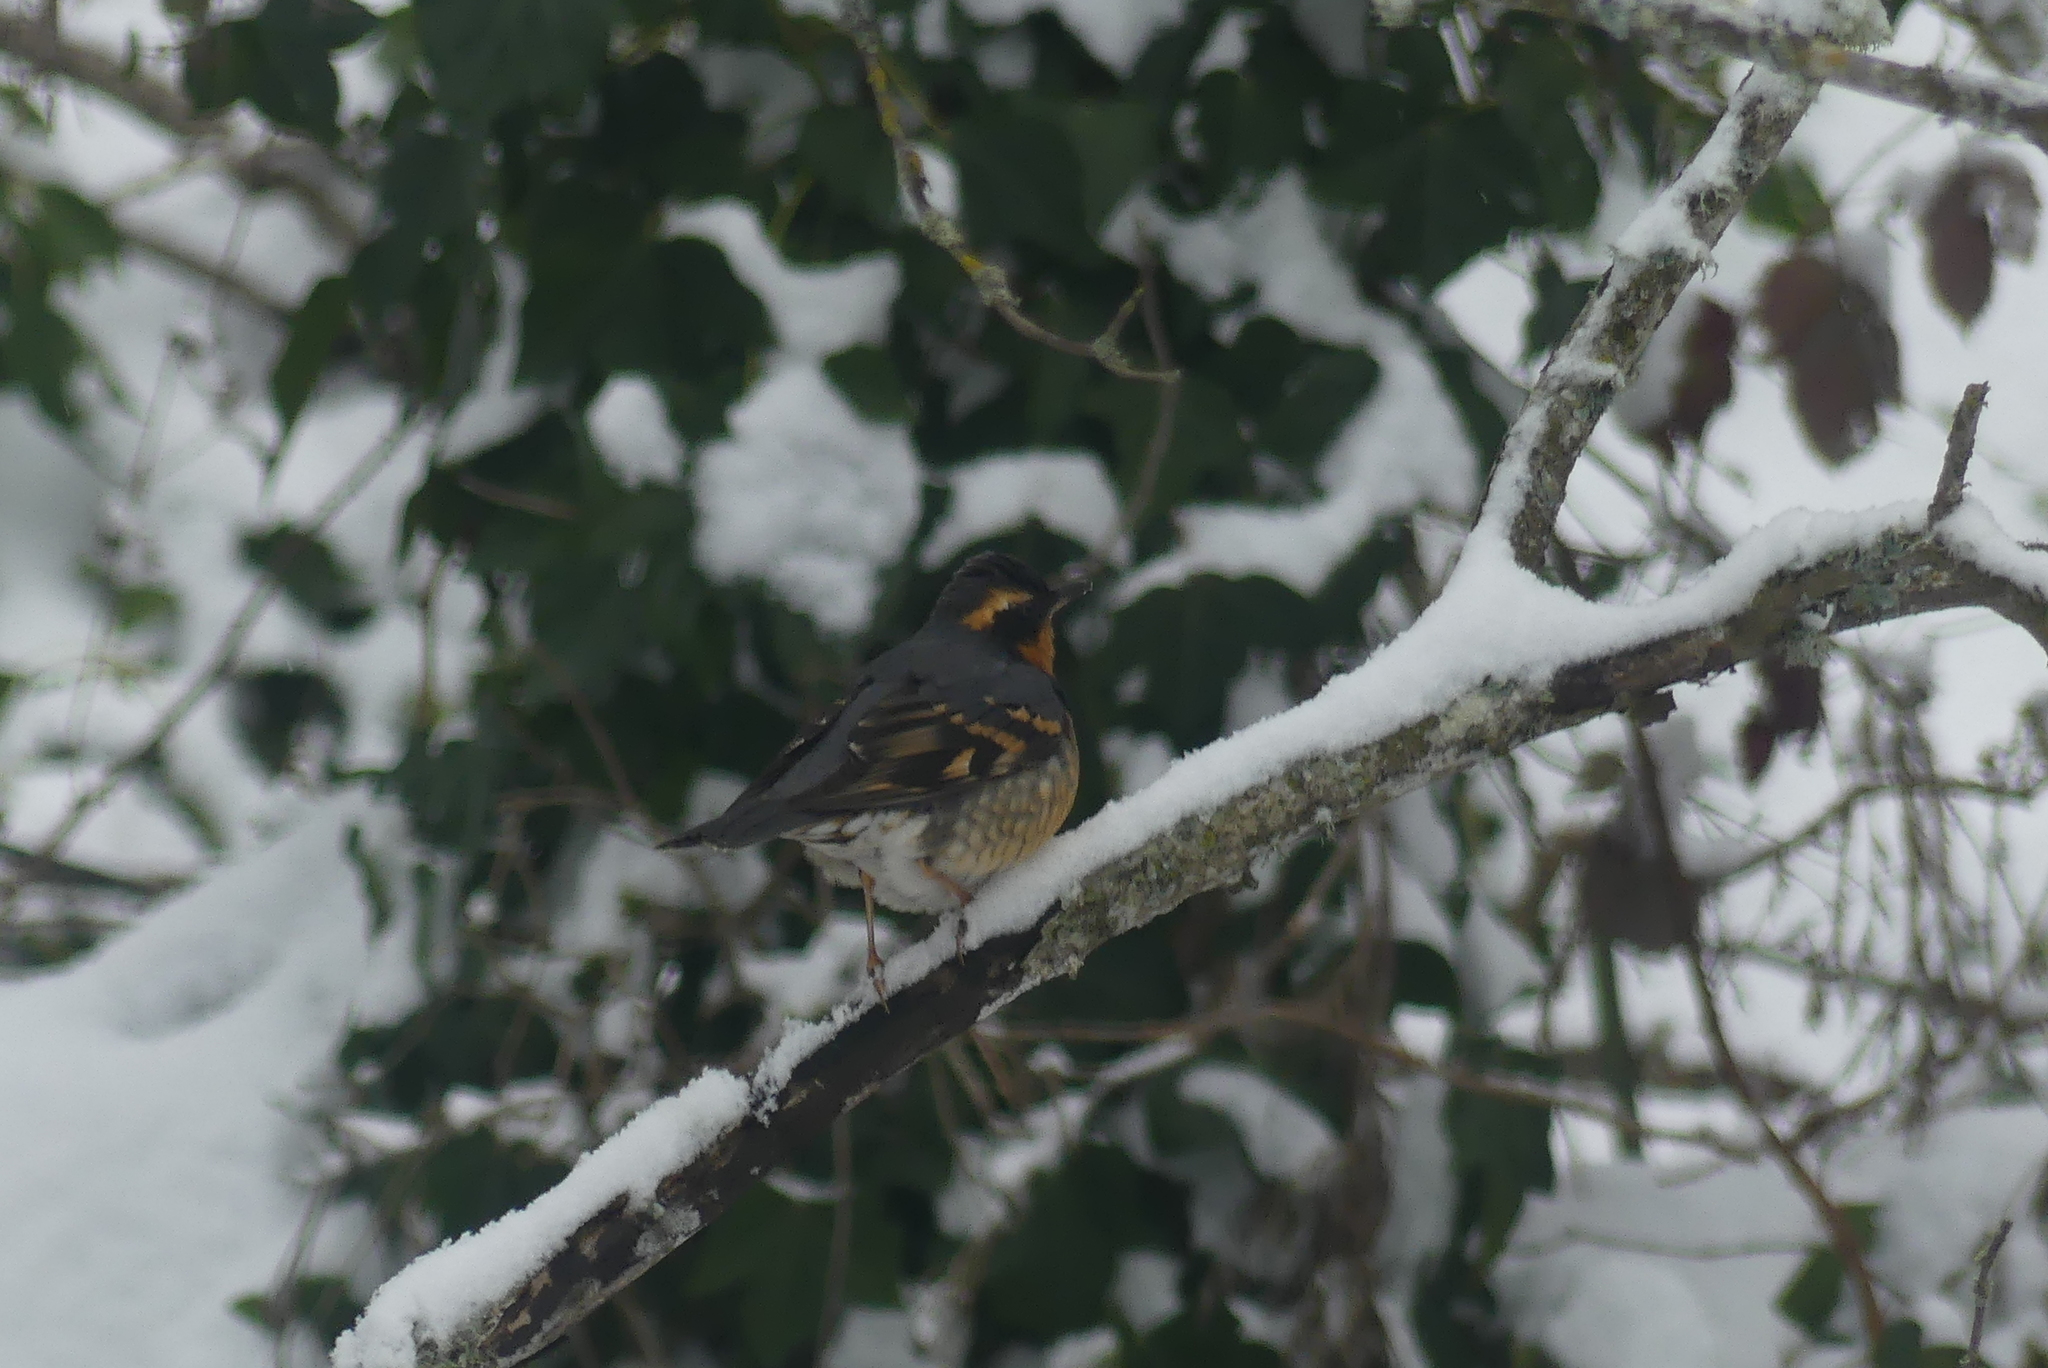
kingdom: Animalia
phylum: Chordata
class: Aves
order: Passeriformes
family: Turdidae
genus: Ixoreus
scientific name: Ixoreus naevius
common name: Varied thrush
